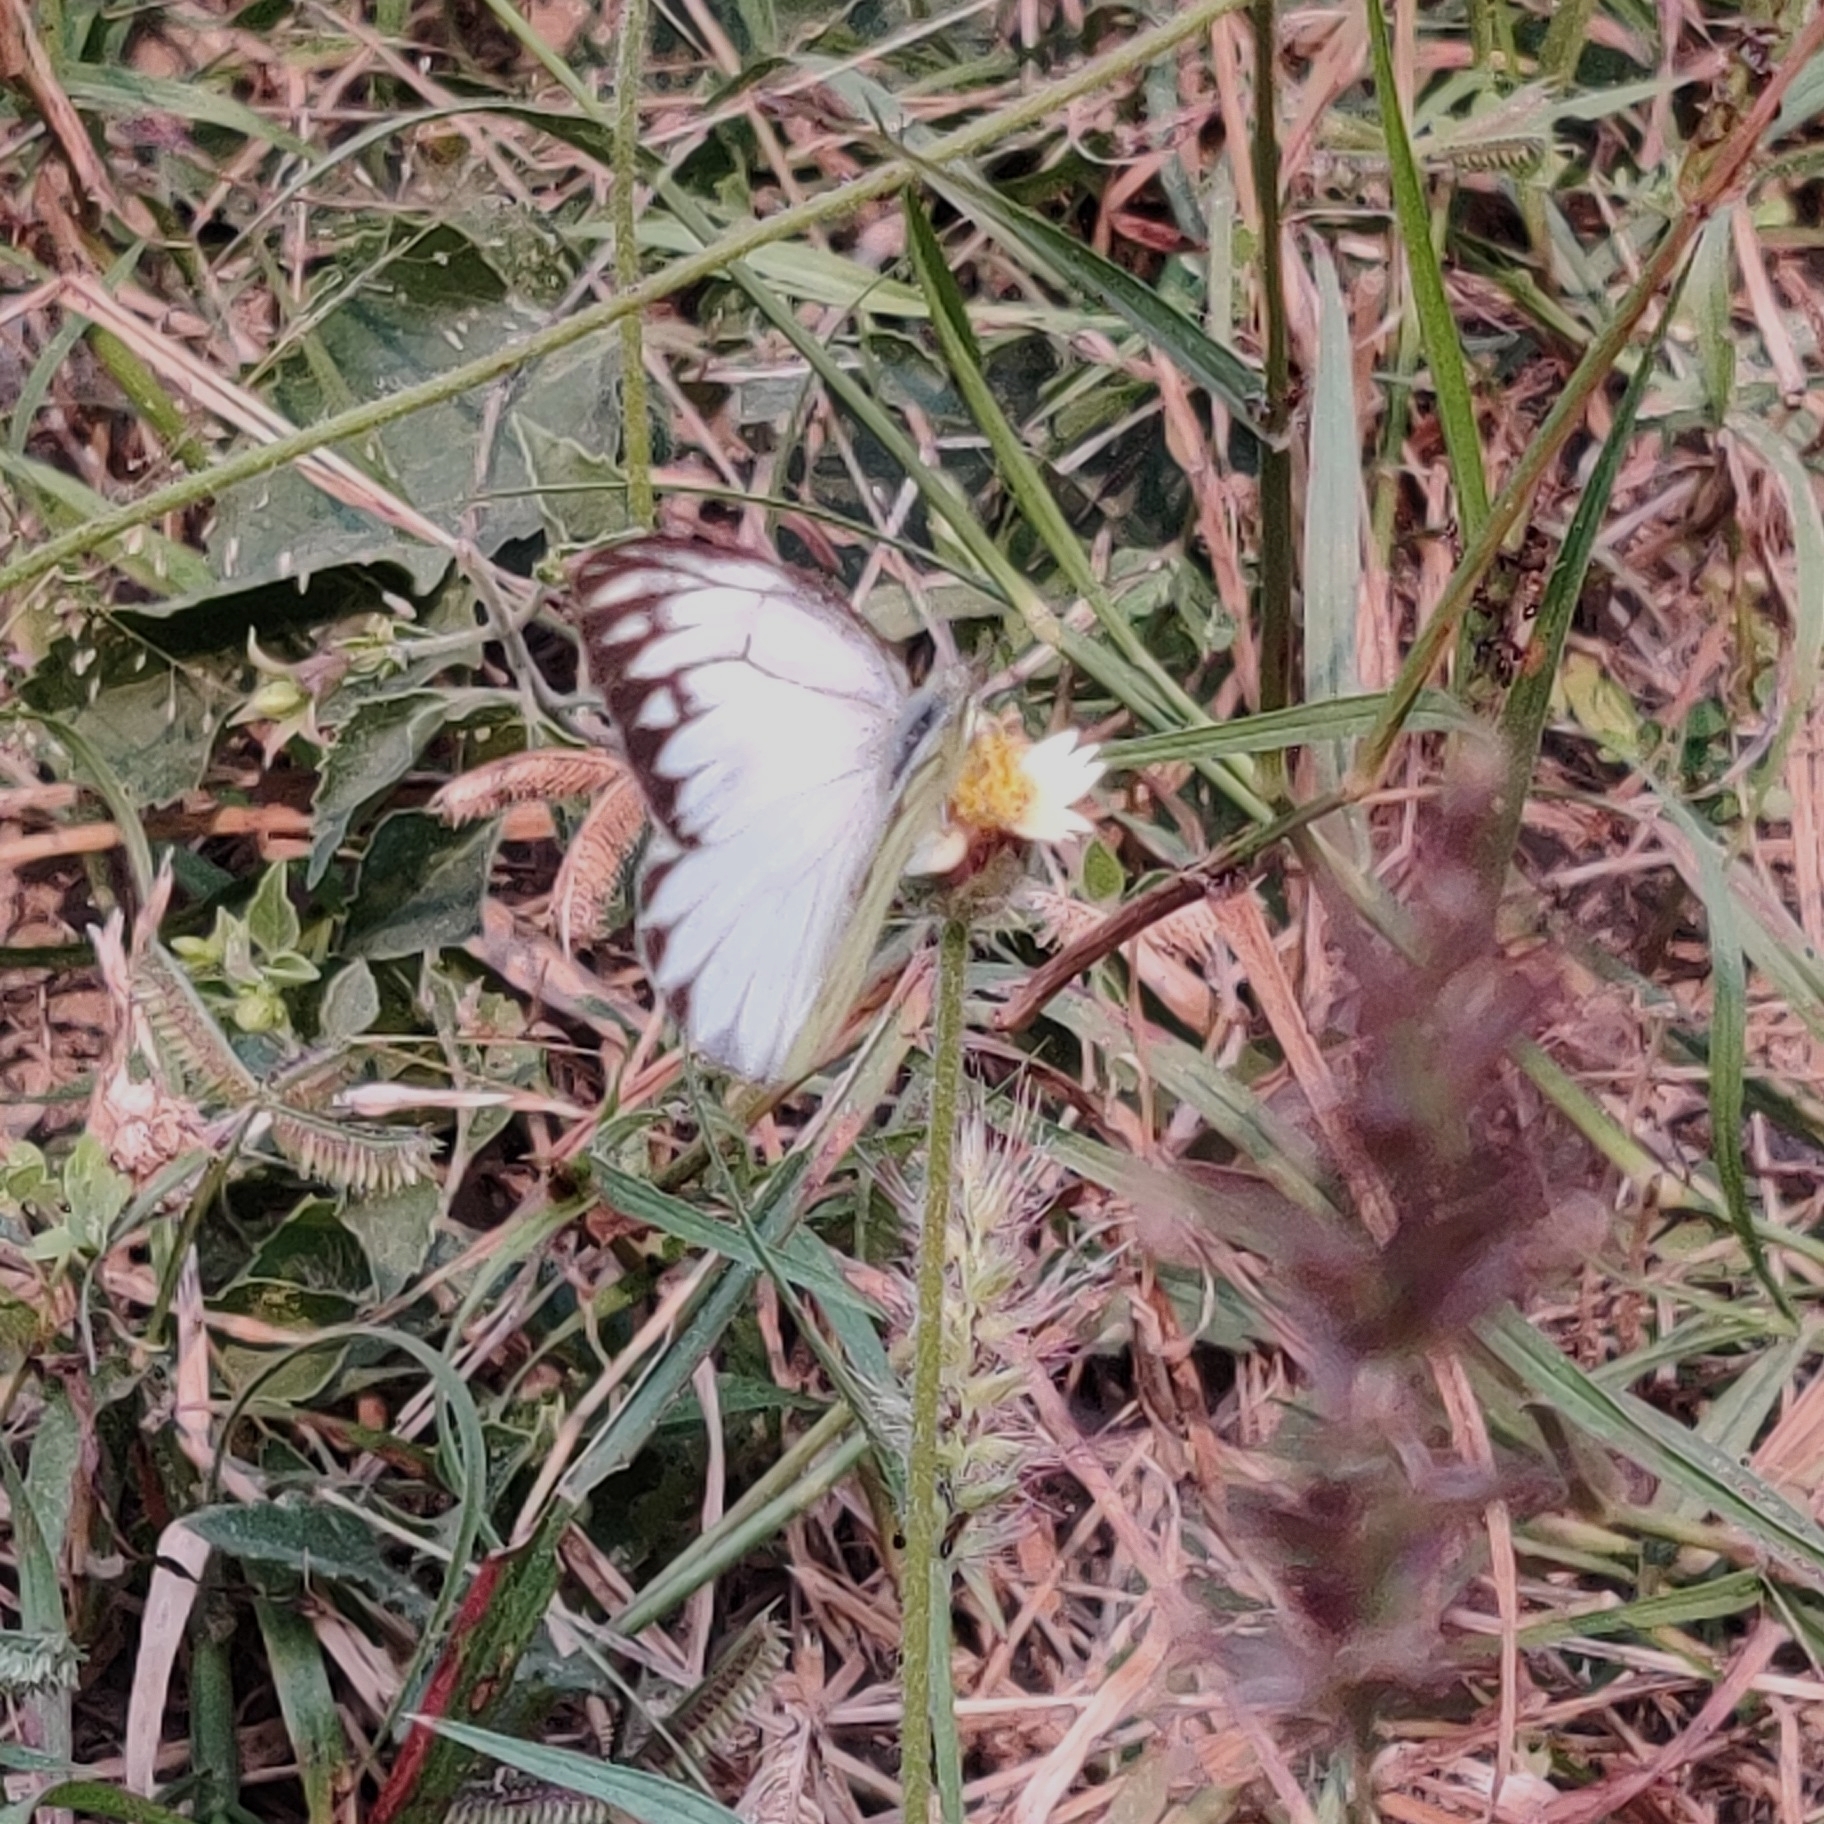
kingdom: Animalia
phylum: Arthropoda
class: Insecta
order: Lepidoptera
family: Pieridae
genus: Cepora
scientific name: Cepora nerissa
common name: Common gull
